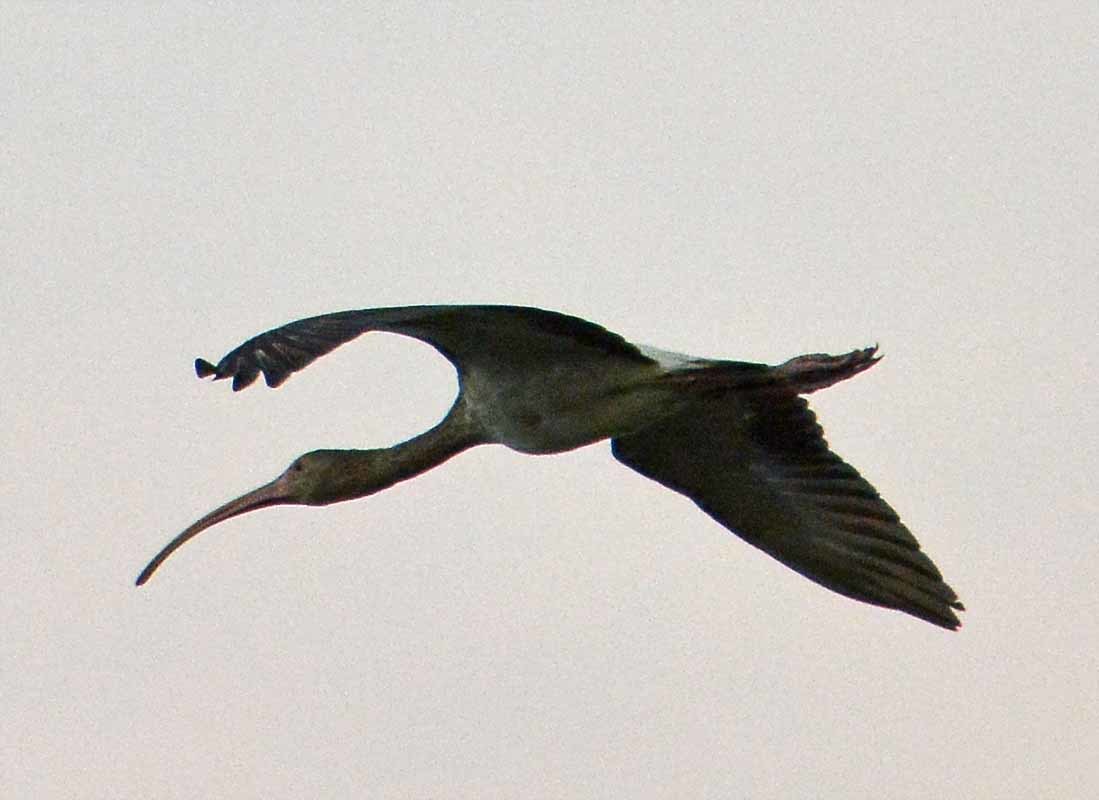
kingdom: Animalia
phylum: Chordata
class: Aves
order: Pelecaniformes
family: Threskiornithidae
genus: Eudocimus
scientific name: Eudocimus albus
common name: White ibis
